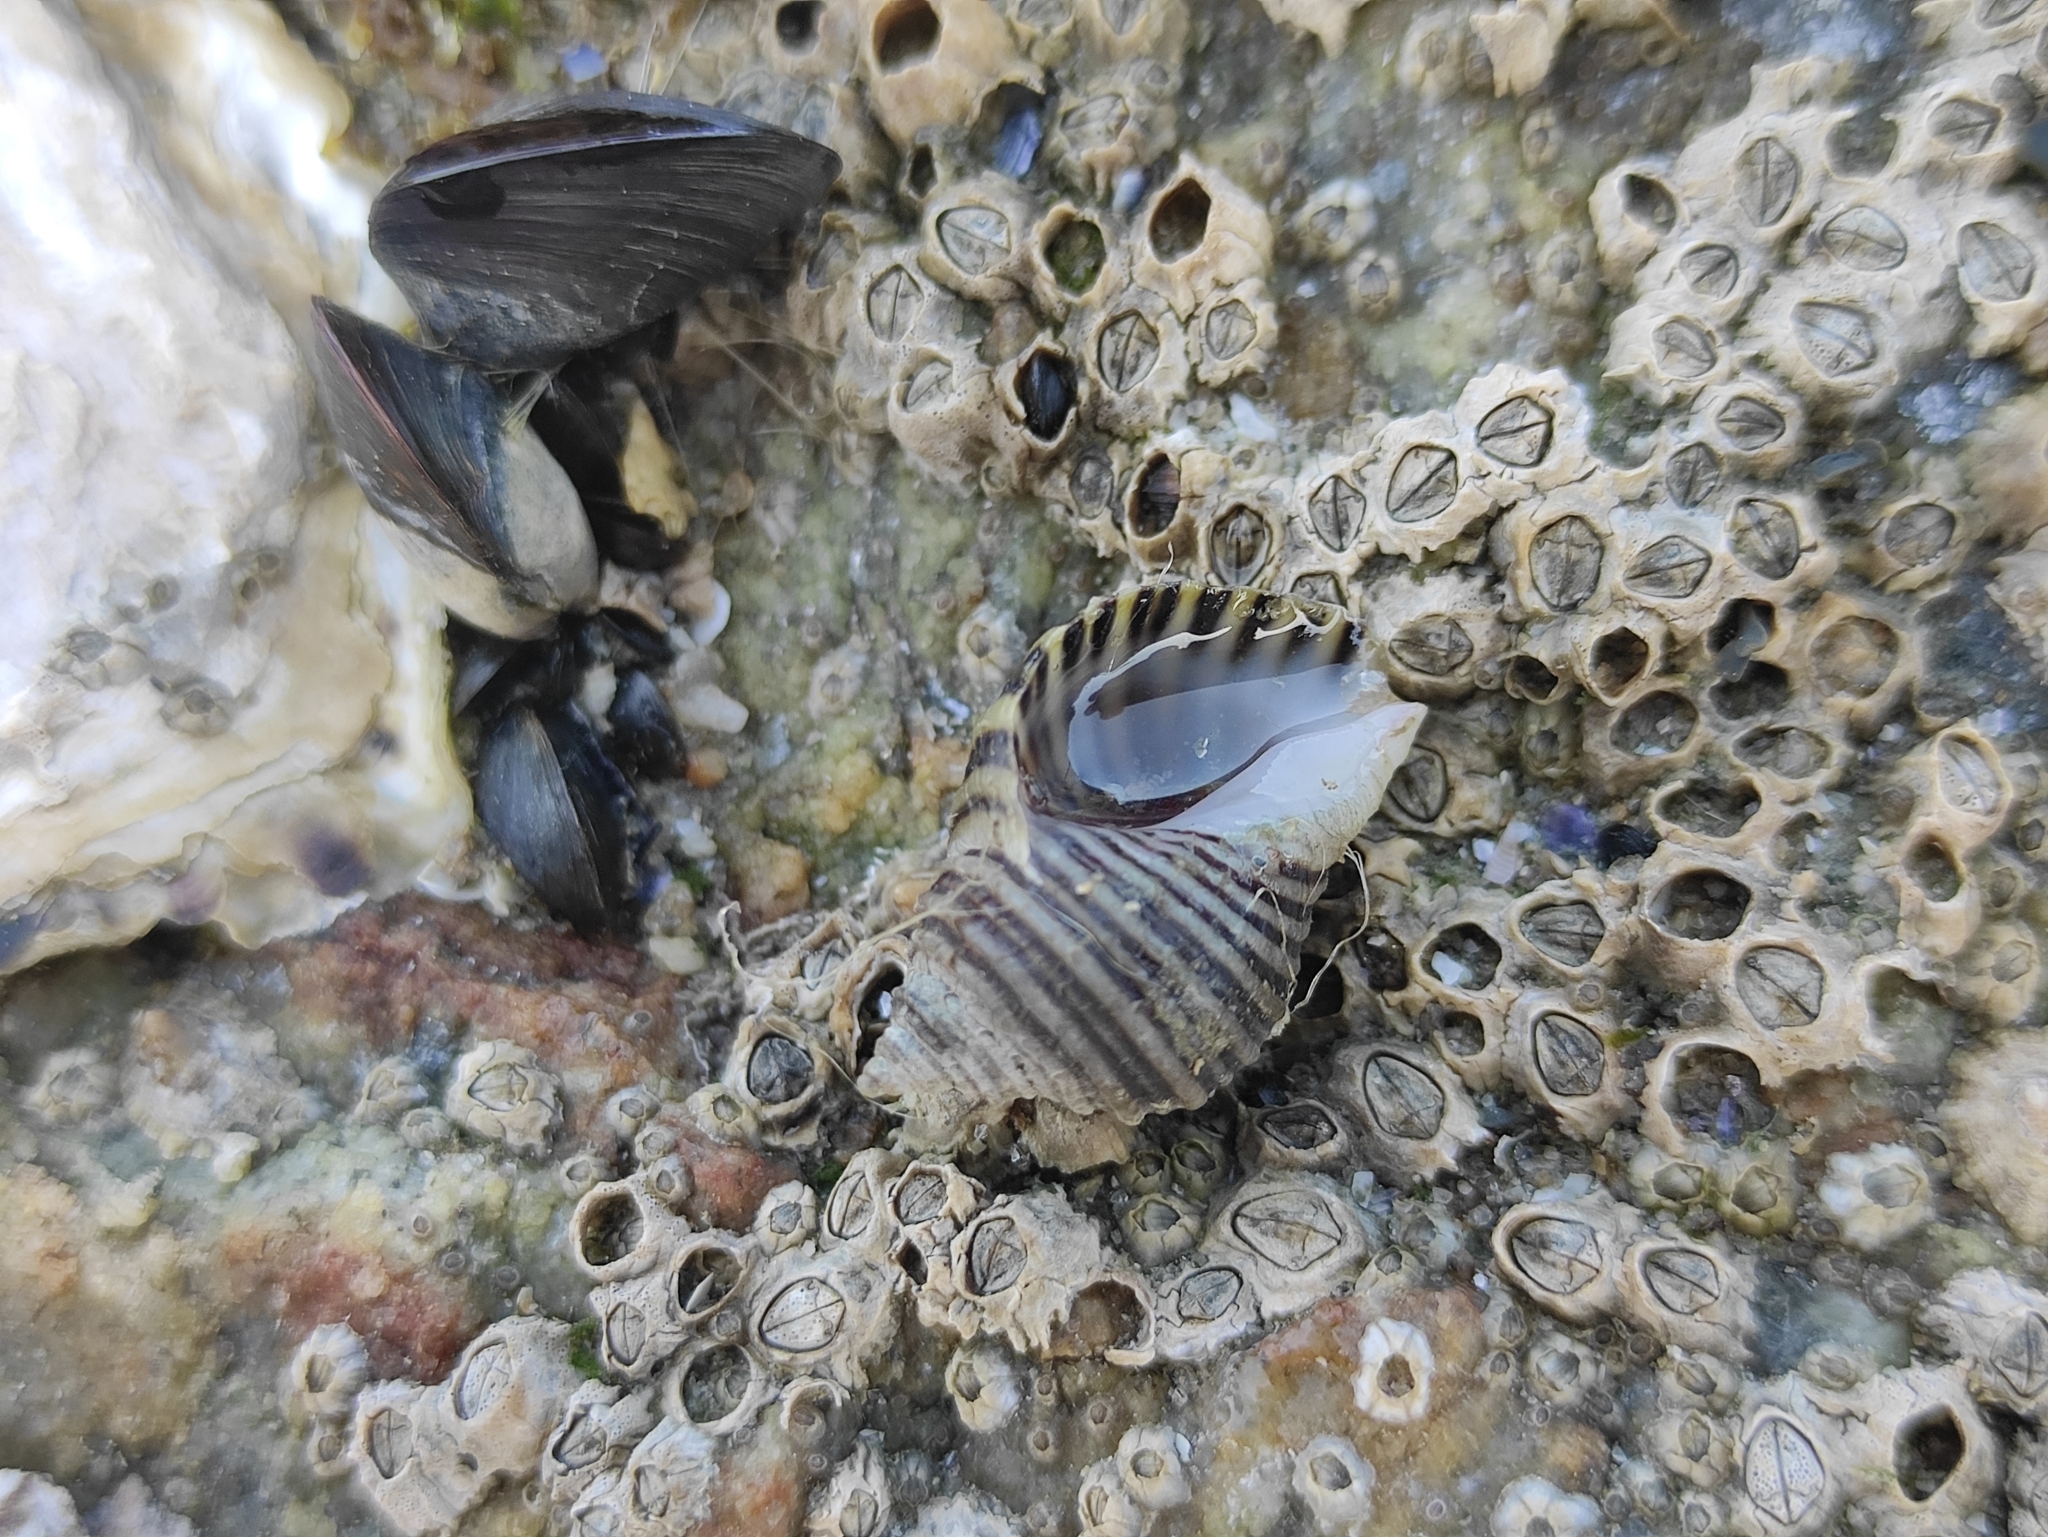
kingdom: Animalia
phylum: Mollusca
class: Gastropoda
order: Neogastropoda
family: Muricidae
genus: Nucella
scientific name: Nucella lapillus
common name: Dog whelk
